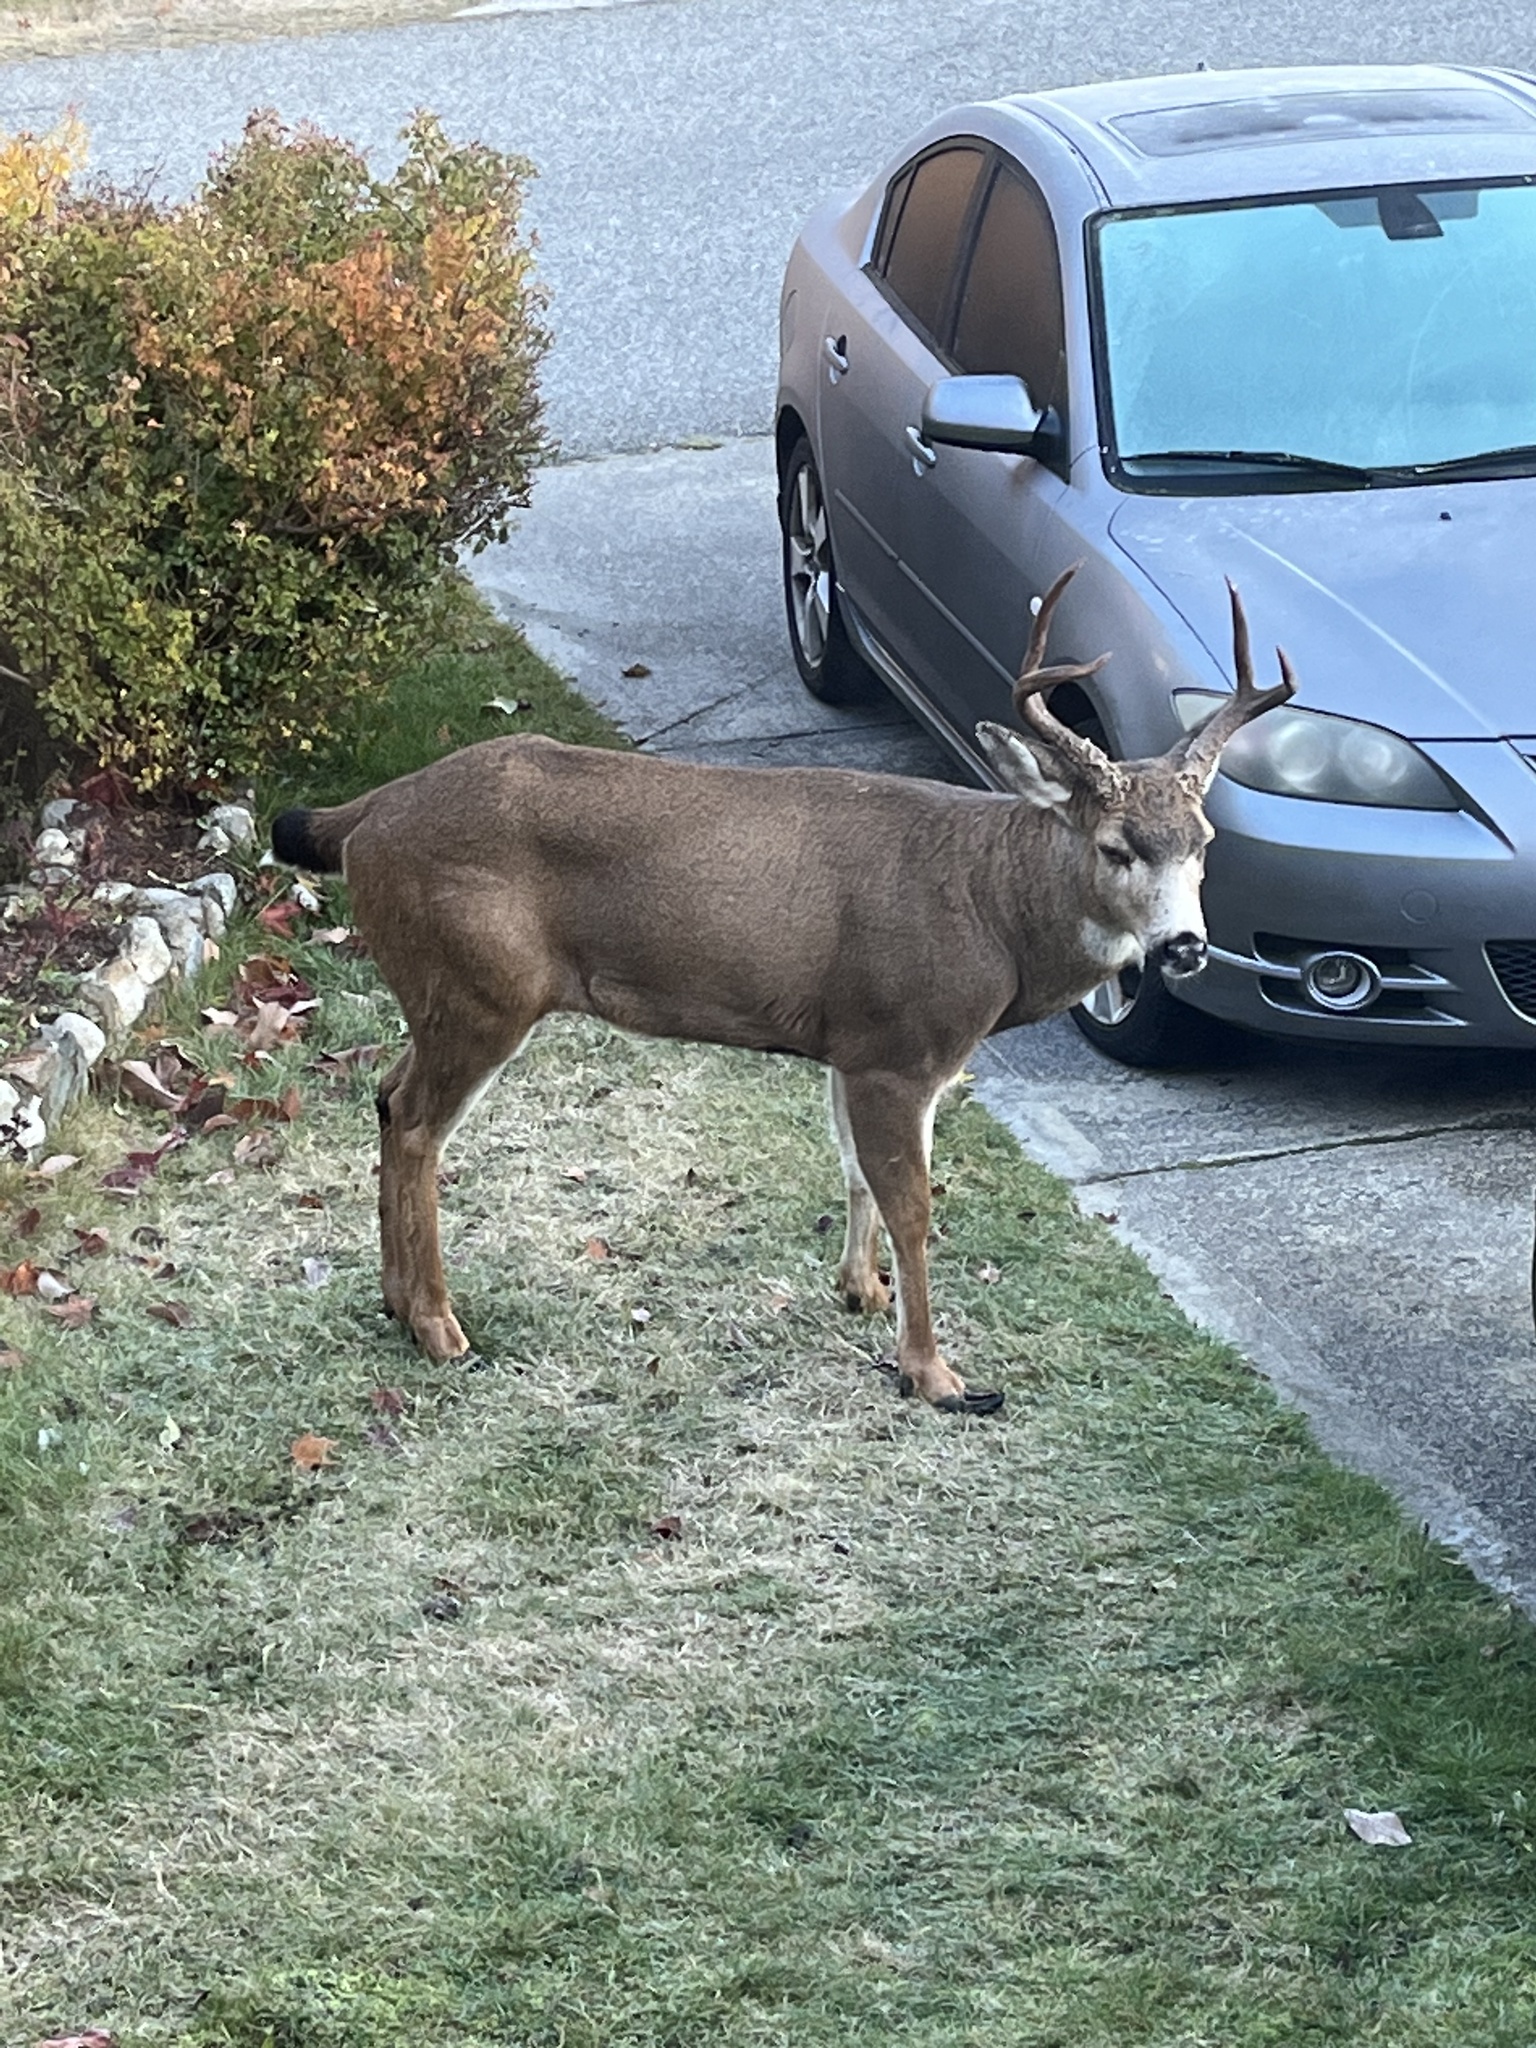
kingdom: Animalia
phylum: Chordata
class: Mammalia
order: Artiodactyla
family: Cervidae
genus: Odocoileus
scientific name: Odocoileus hemionus
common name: Mule deer
